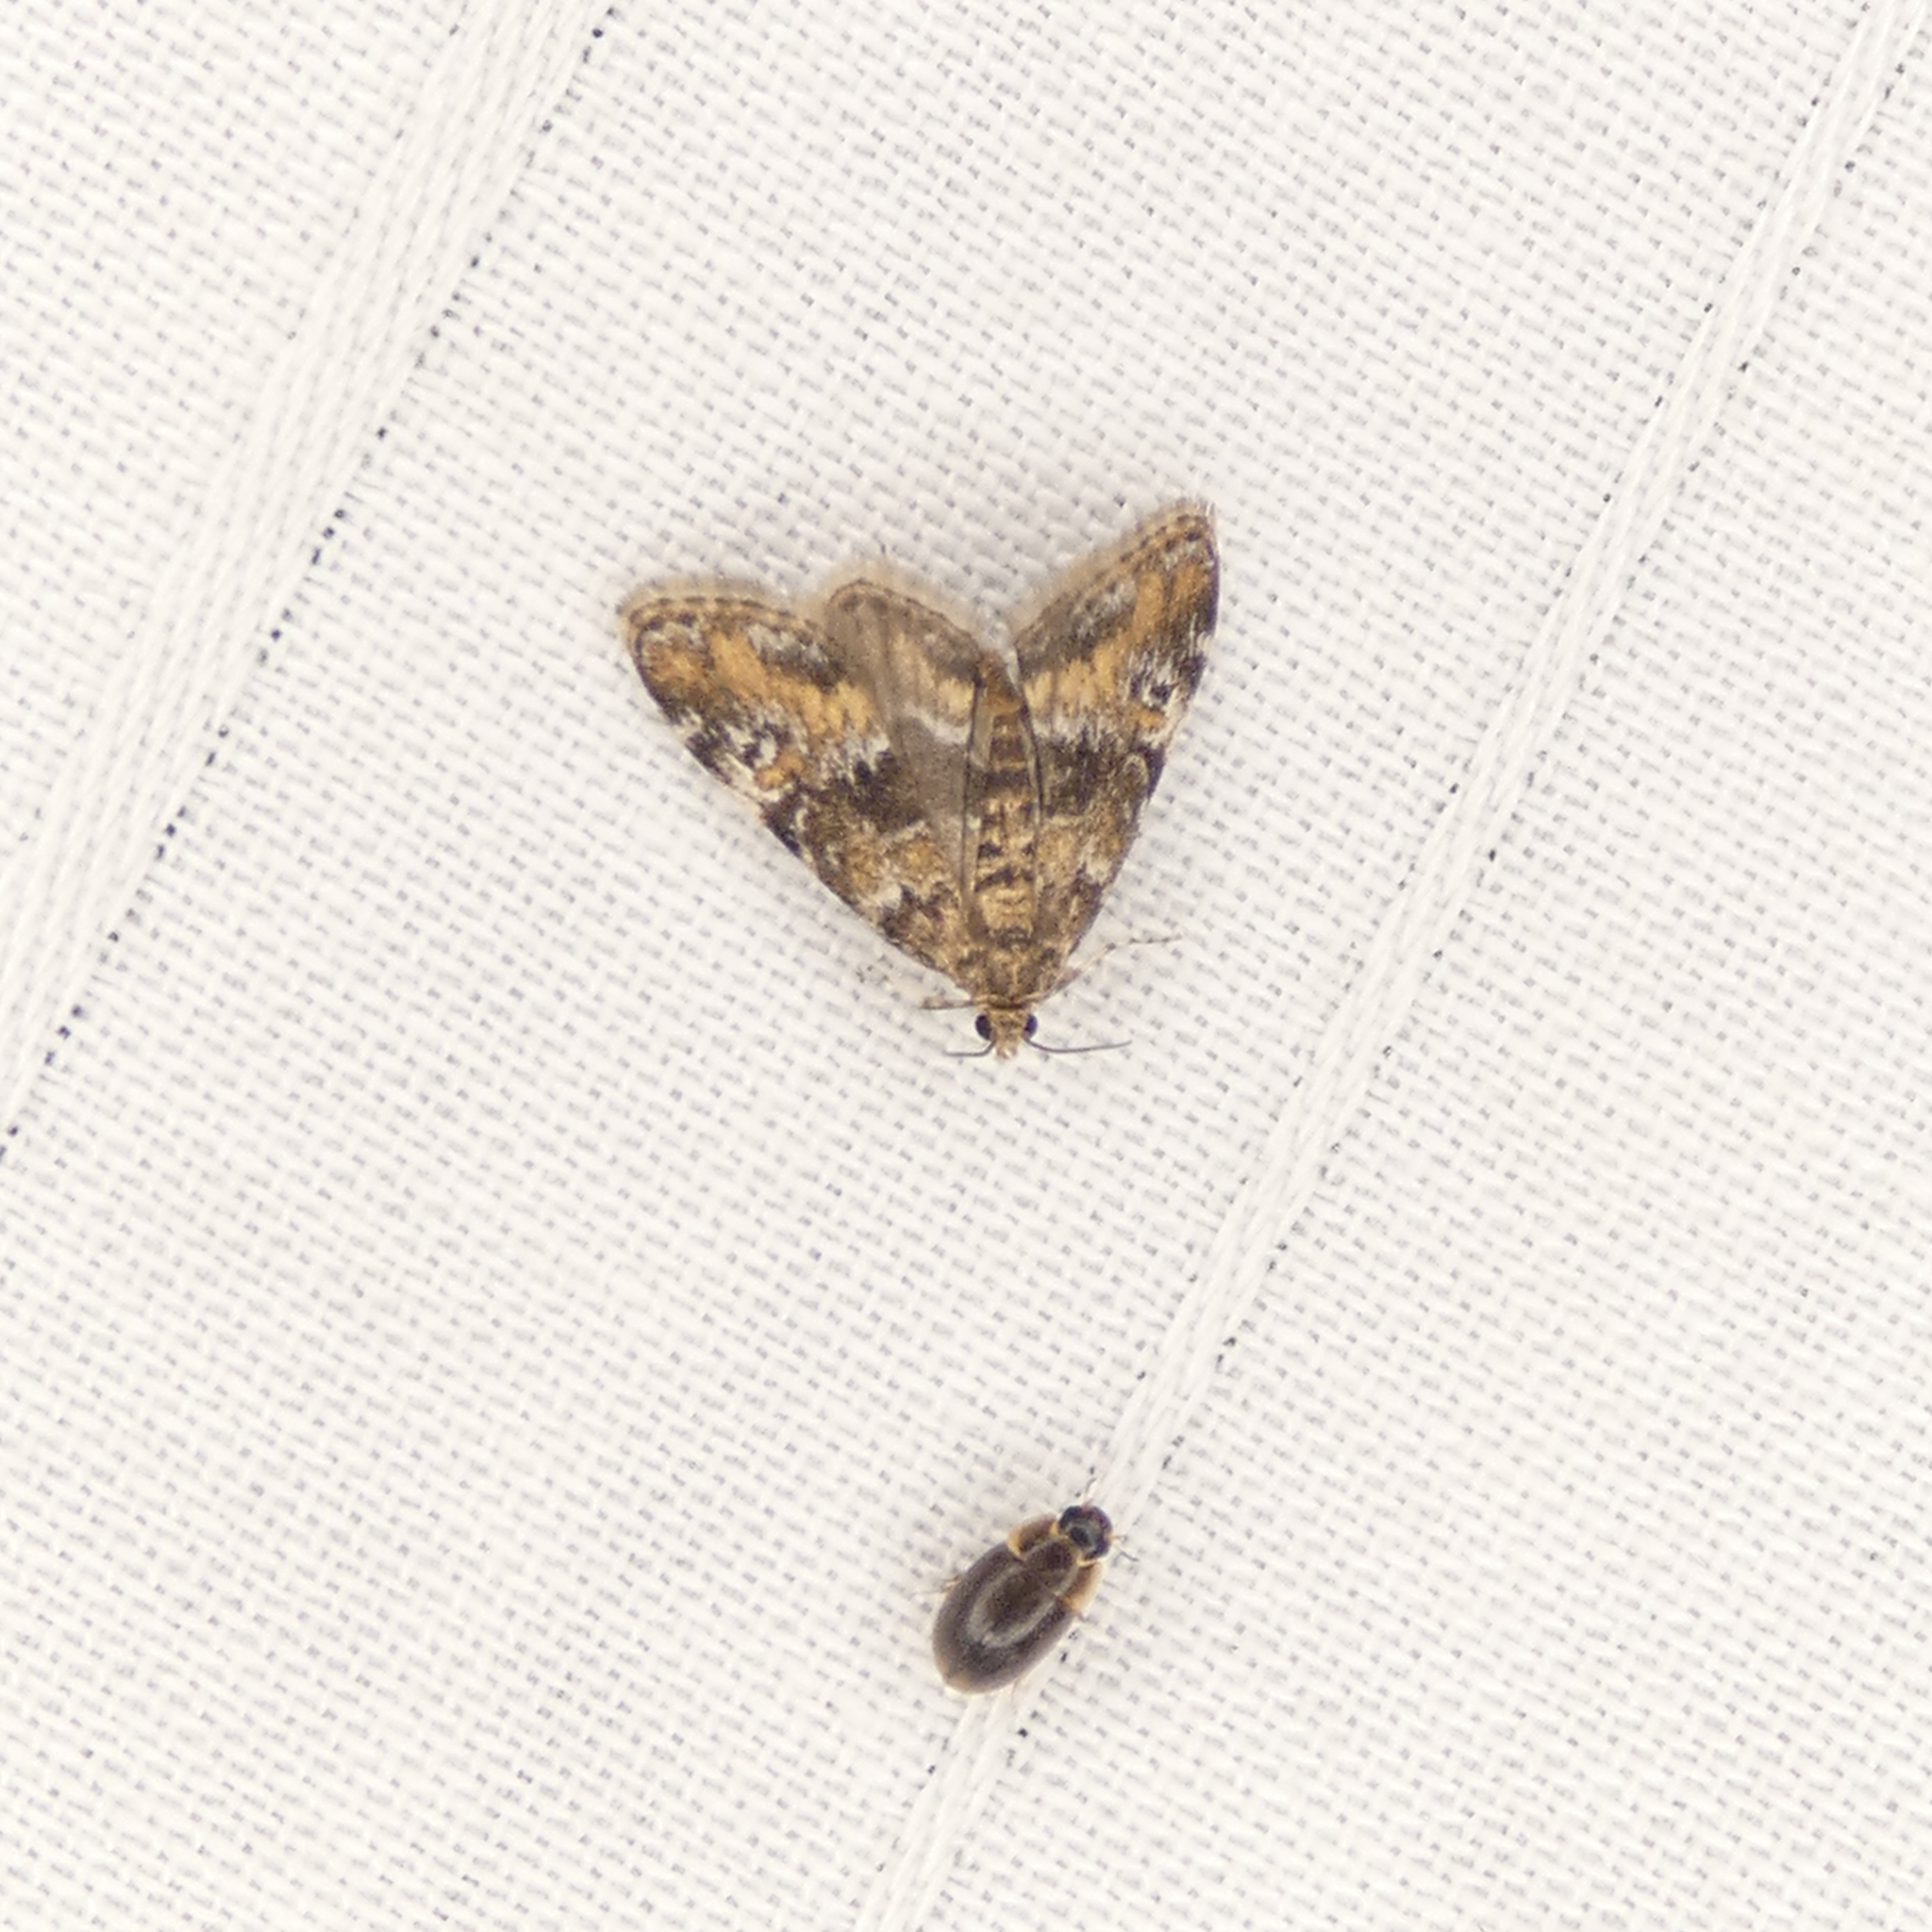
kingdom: Animalia
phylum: Arthropoda
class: Insecta
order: Lepidoptera
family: Crambidae
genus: Elophila
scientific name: Elophila obliteralis
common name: Waterlily leafcutter moth
